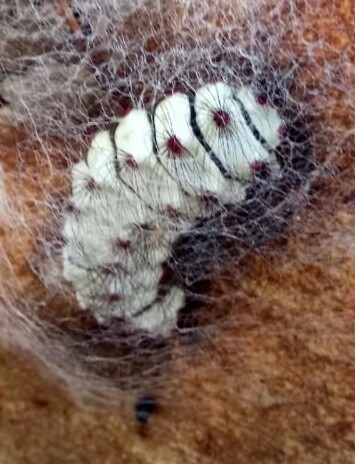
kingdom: Animalia
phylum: Arthropoda
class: Insecta
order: Lepidoptera
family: Megalopygidae
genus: Megalopyge
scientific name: Megalopyge lanata
